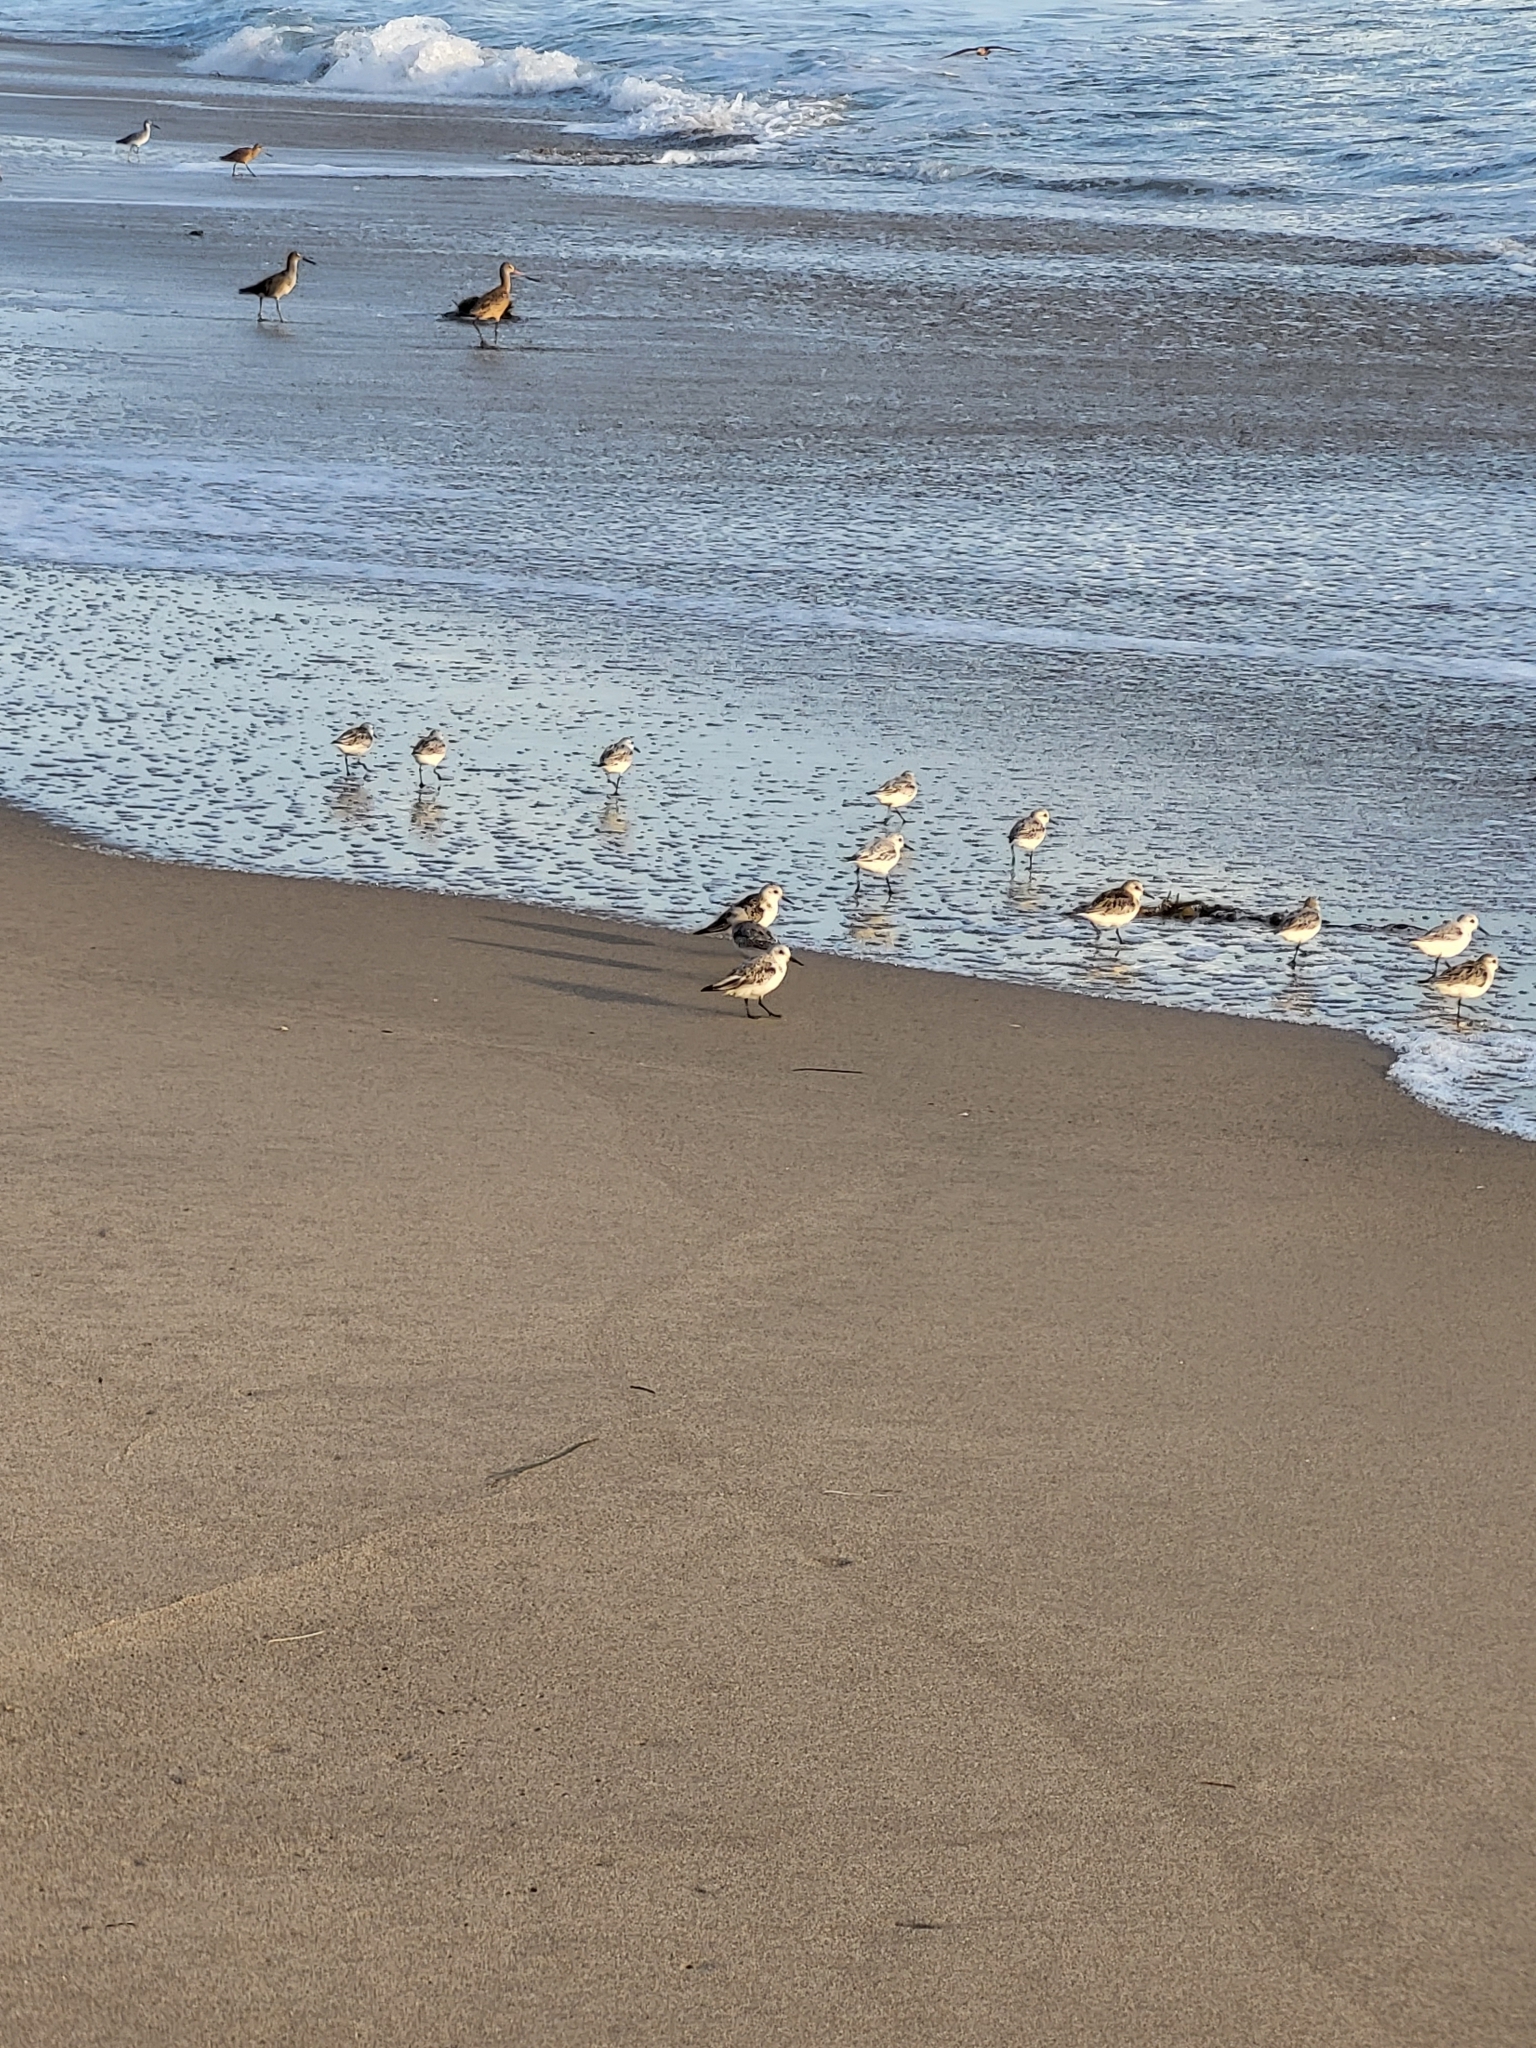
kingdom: Animalia
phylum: Chordata
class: Aves
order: Charadriiformes
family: Scolopacidae
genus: Calidris
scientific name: Calidris alba
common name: Sanderling
